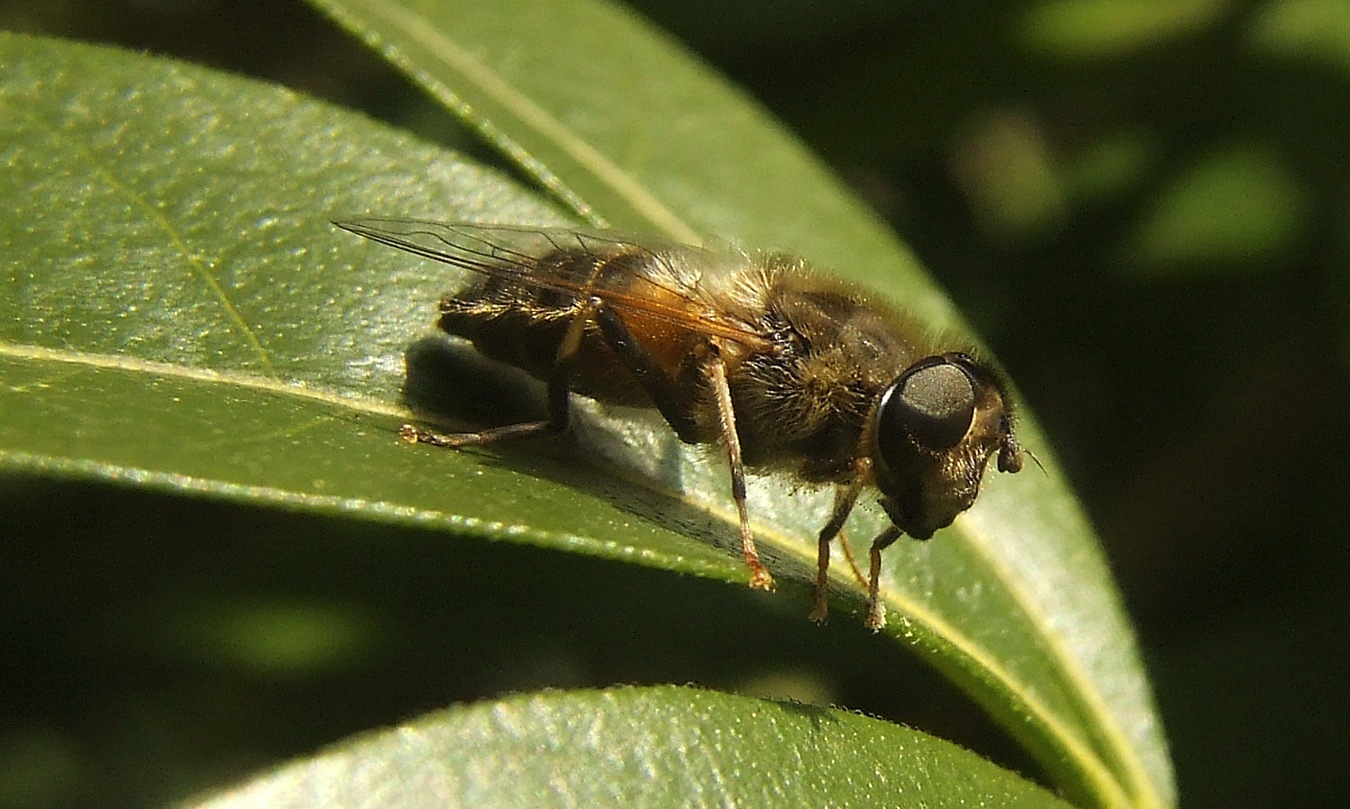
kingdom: Animalia
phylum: Arthropoda
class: Insecta
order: Diptera
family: Syrphidae
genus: Eristalis
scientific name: Eristalis pertinax
